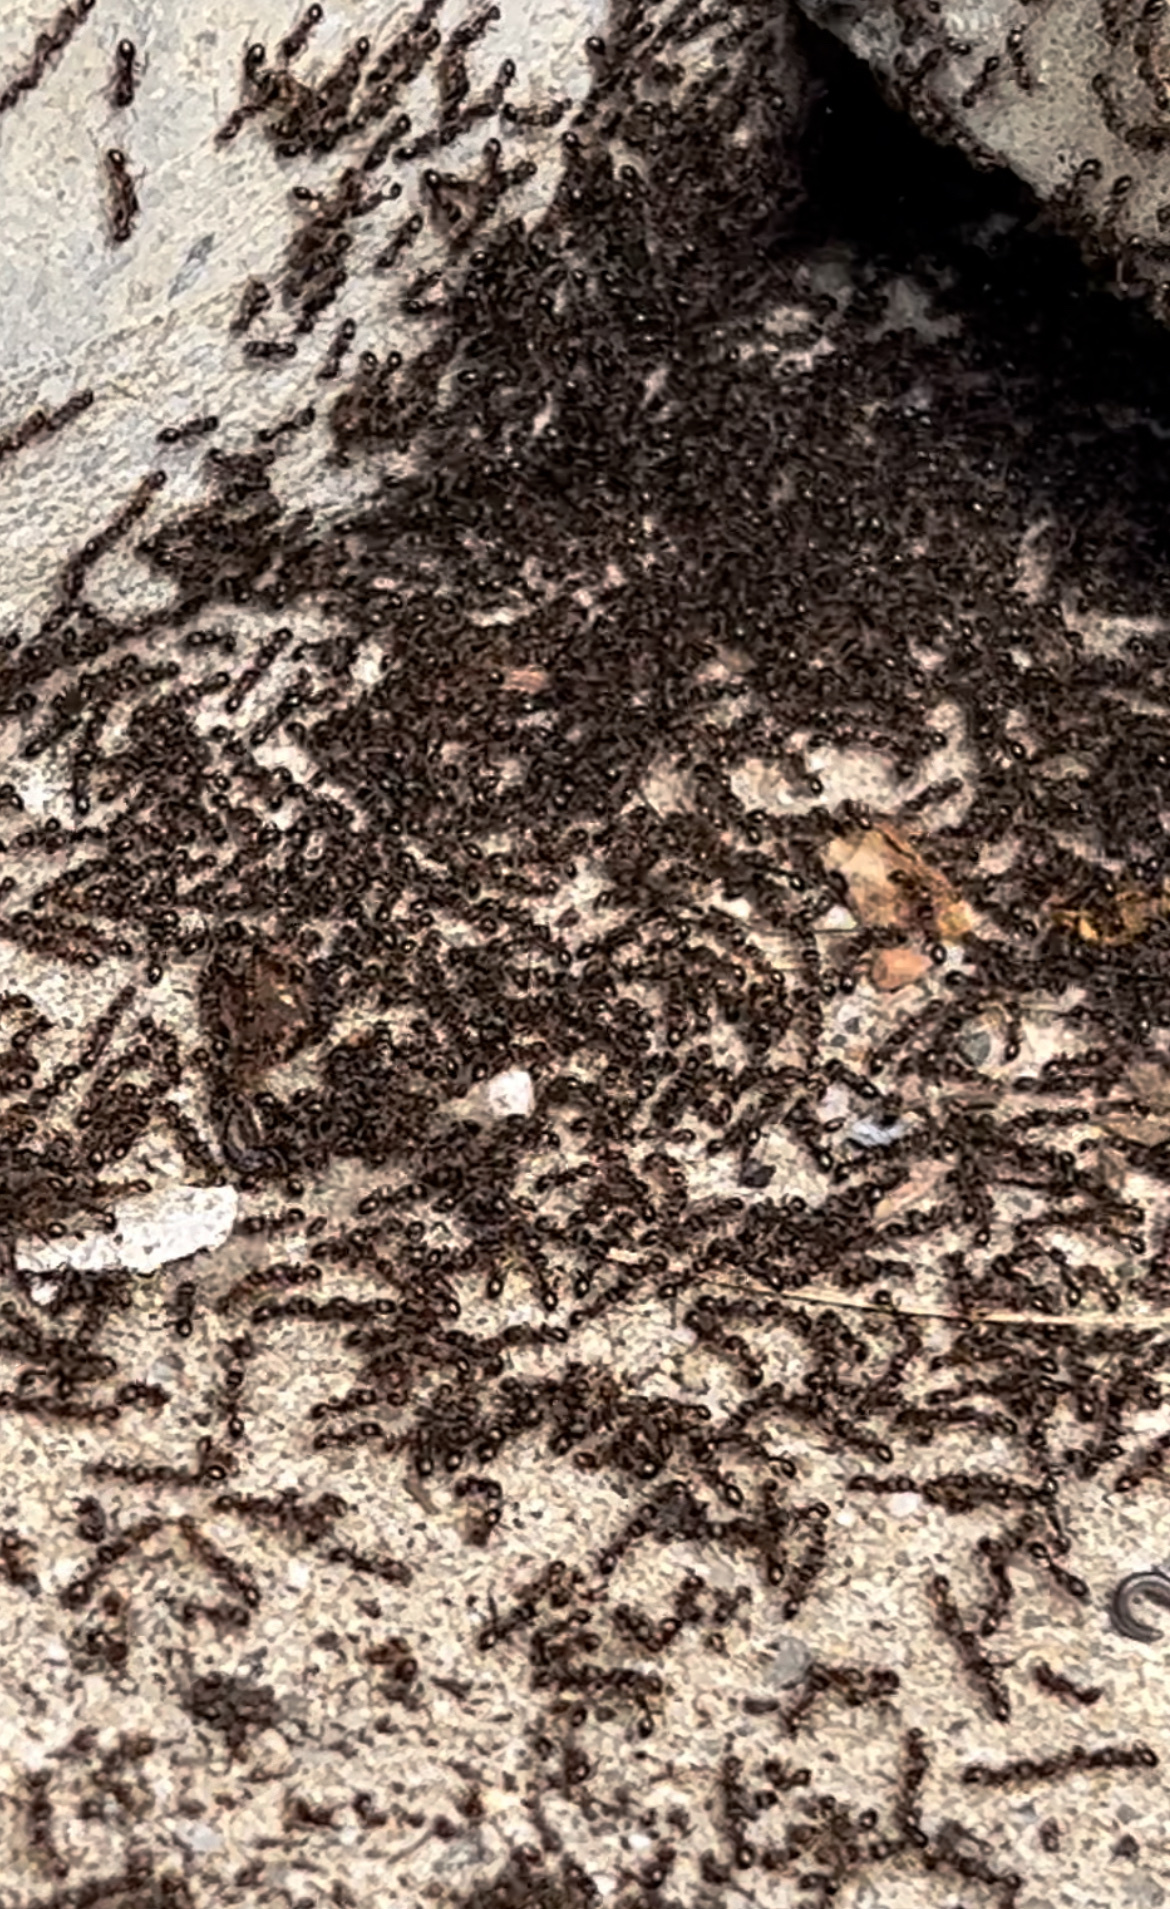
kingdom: Animalia
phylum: Arthropoda
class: Insecta
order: Hymenoptera
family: Formicidae
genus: Tetramorium
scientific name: Tetramorium immigrans
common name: Pavement ant
